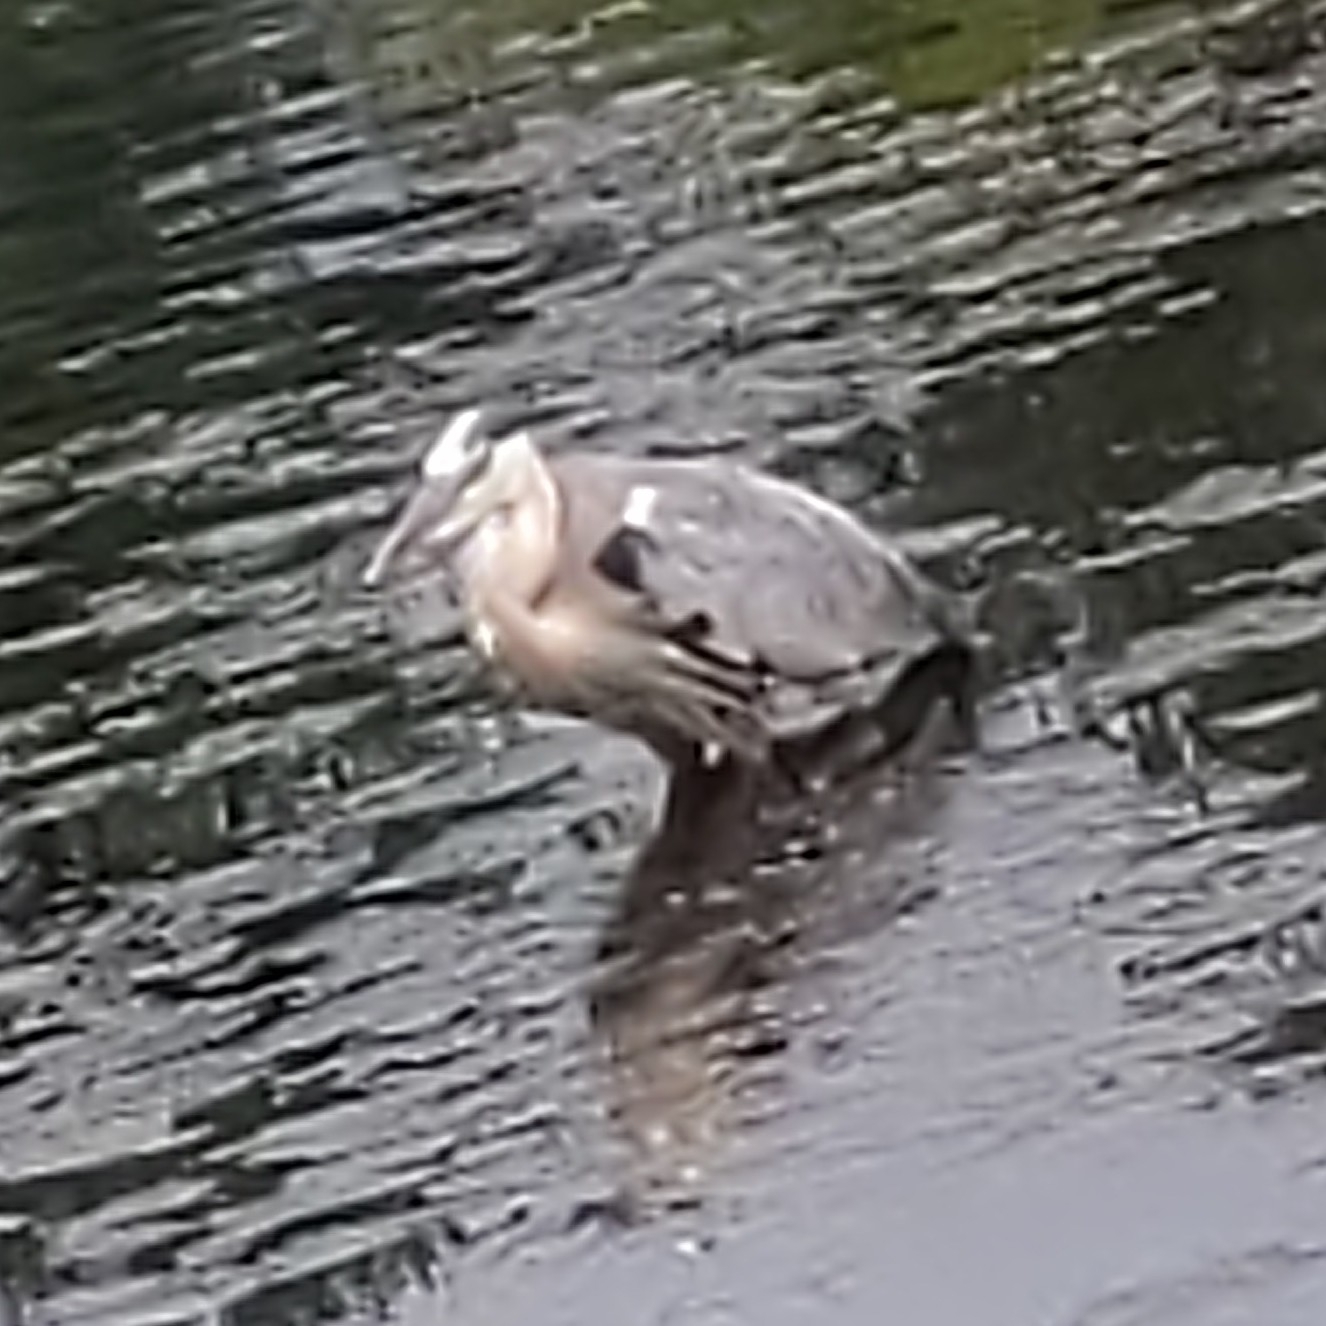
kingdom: Animalia
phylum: Chordata
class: Aves
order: Pelecaniformes
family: Ardeidae
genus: Ardea
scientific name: Ardea herodias
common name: Great blue heron
